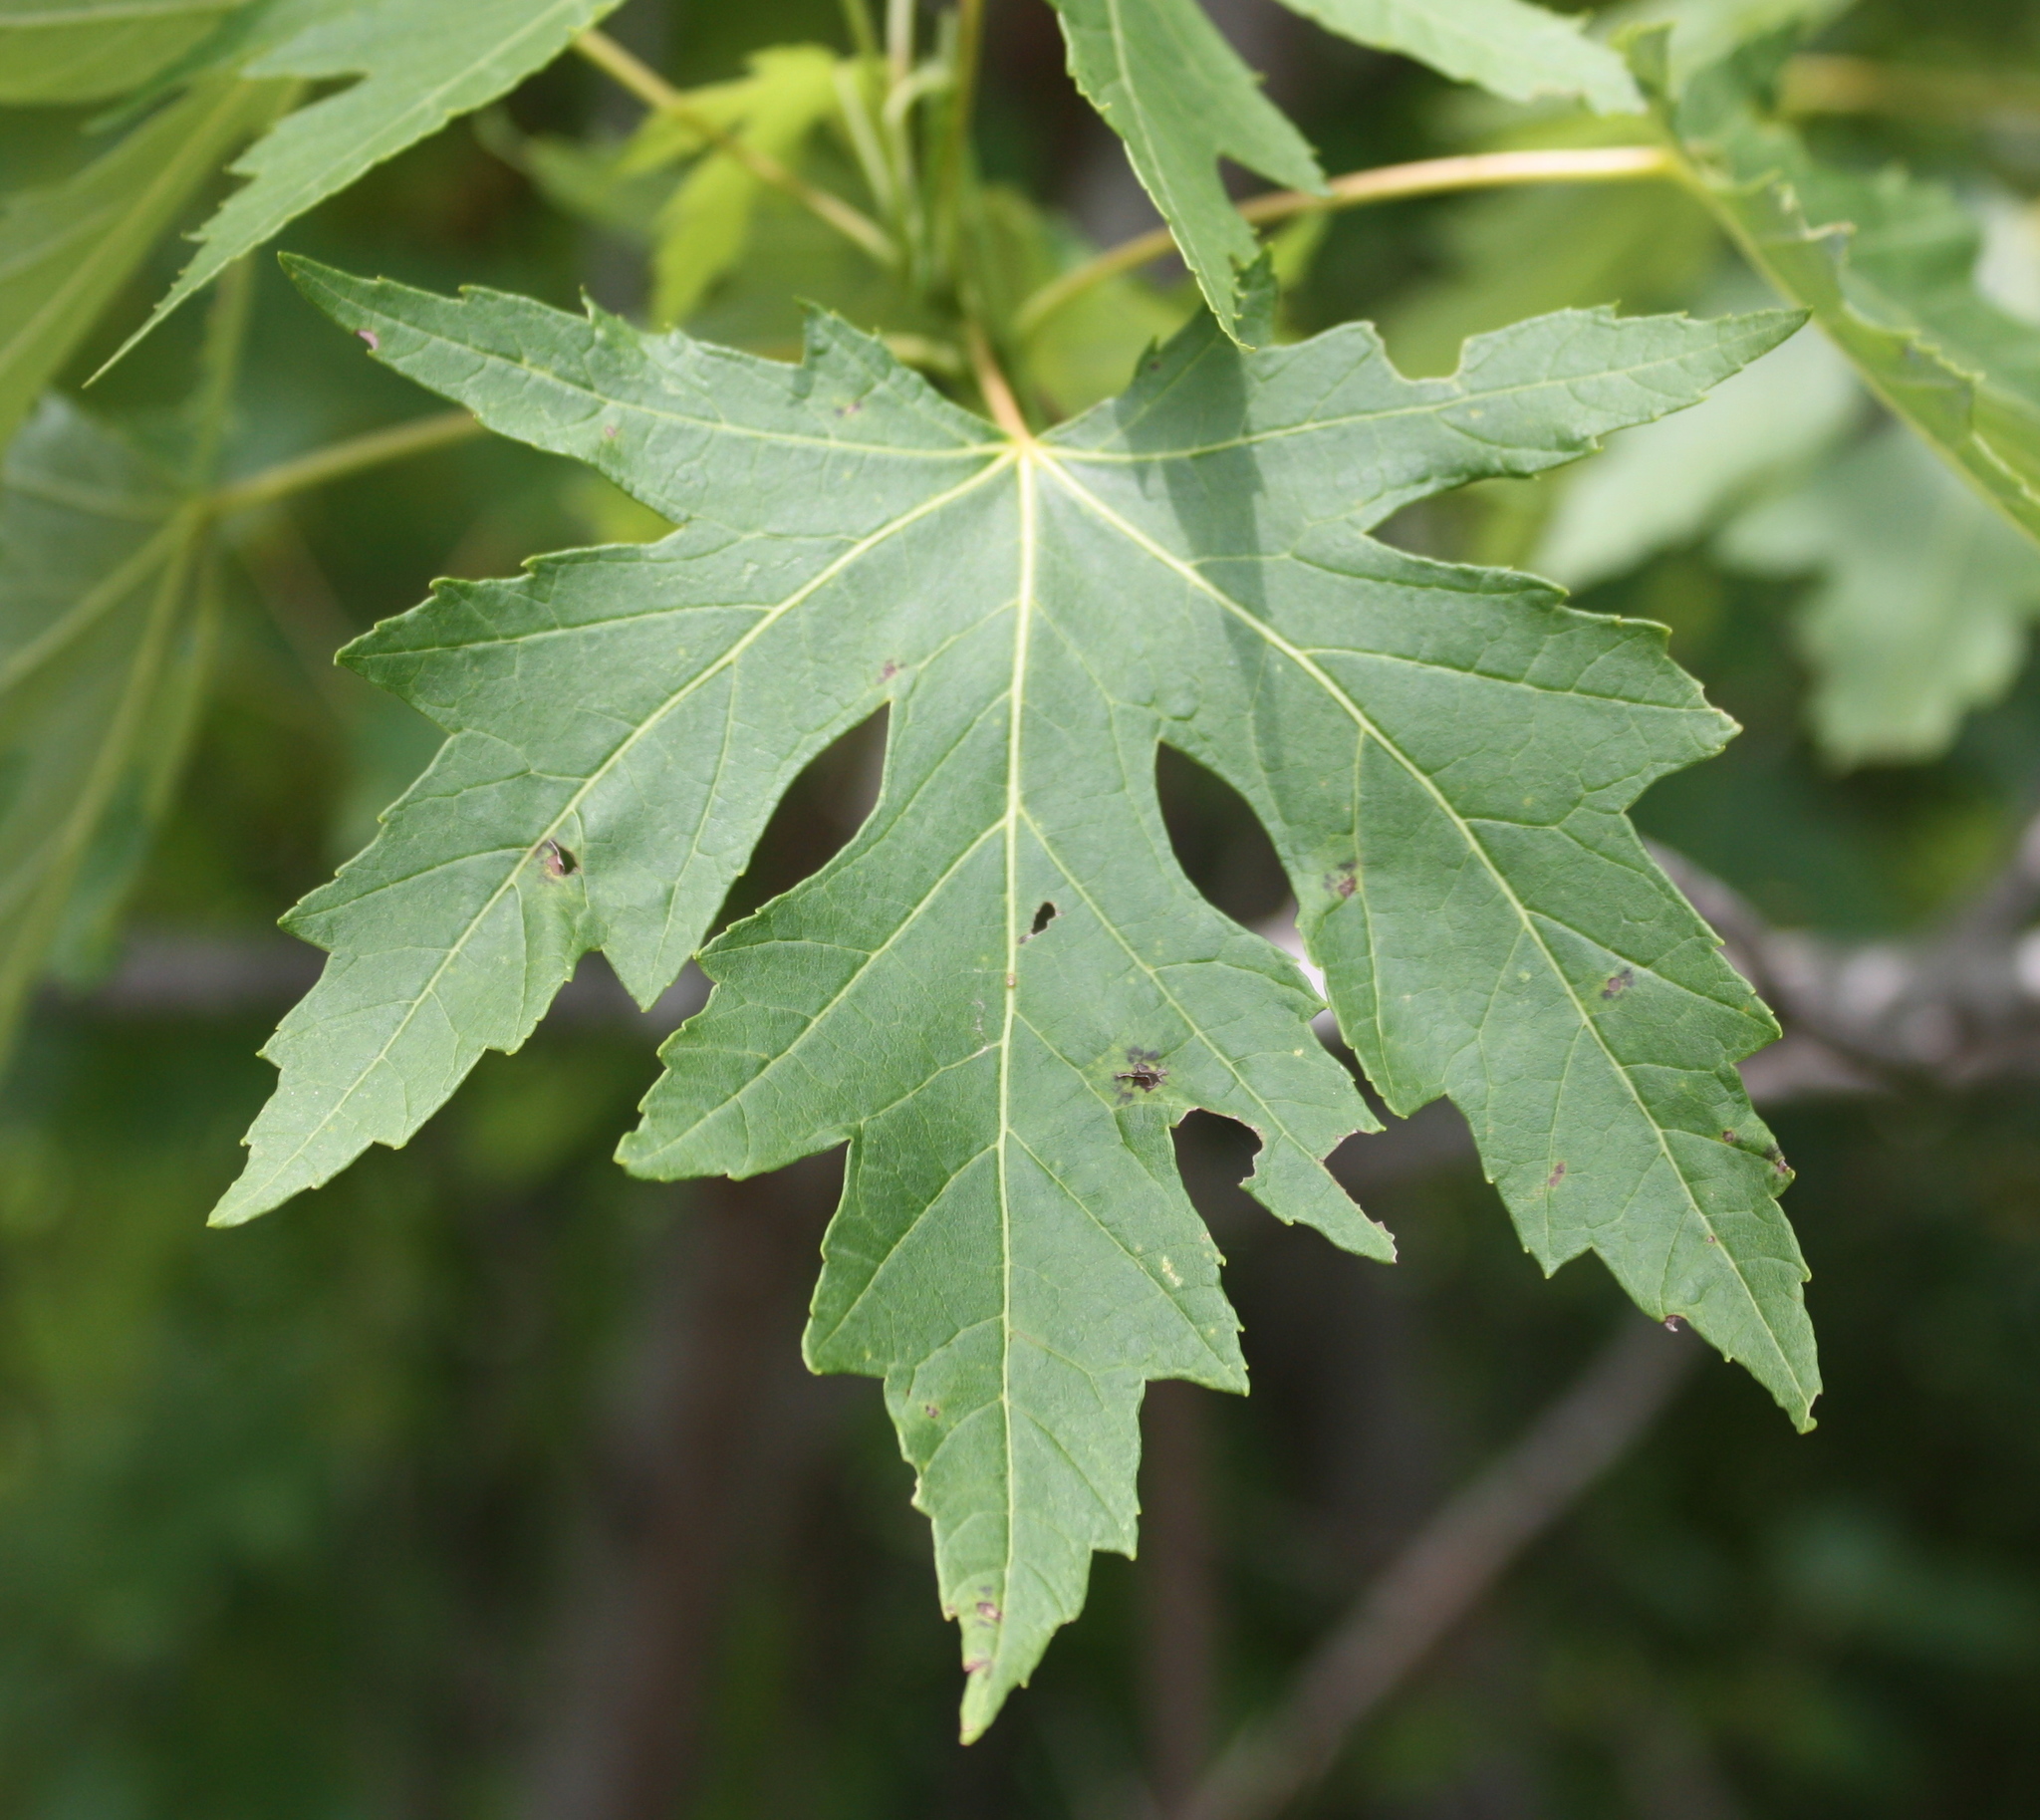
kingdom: Plantae
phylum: Tracheophyta
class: Magnoliopsida
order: Sapindales
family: Sapindaceae
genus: Acer
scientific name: Acer saccharinum
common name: Silver maple
